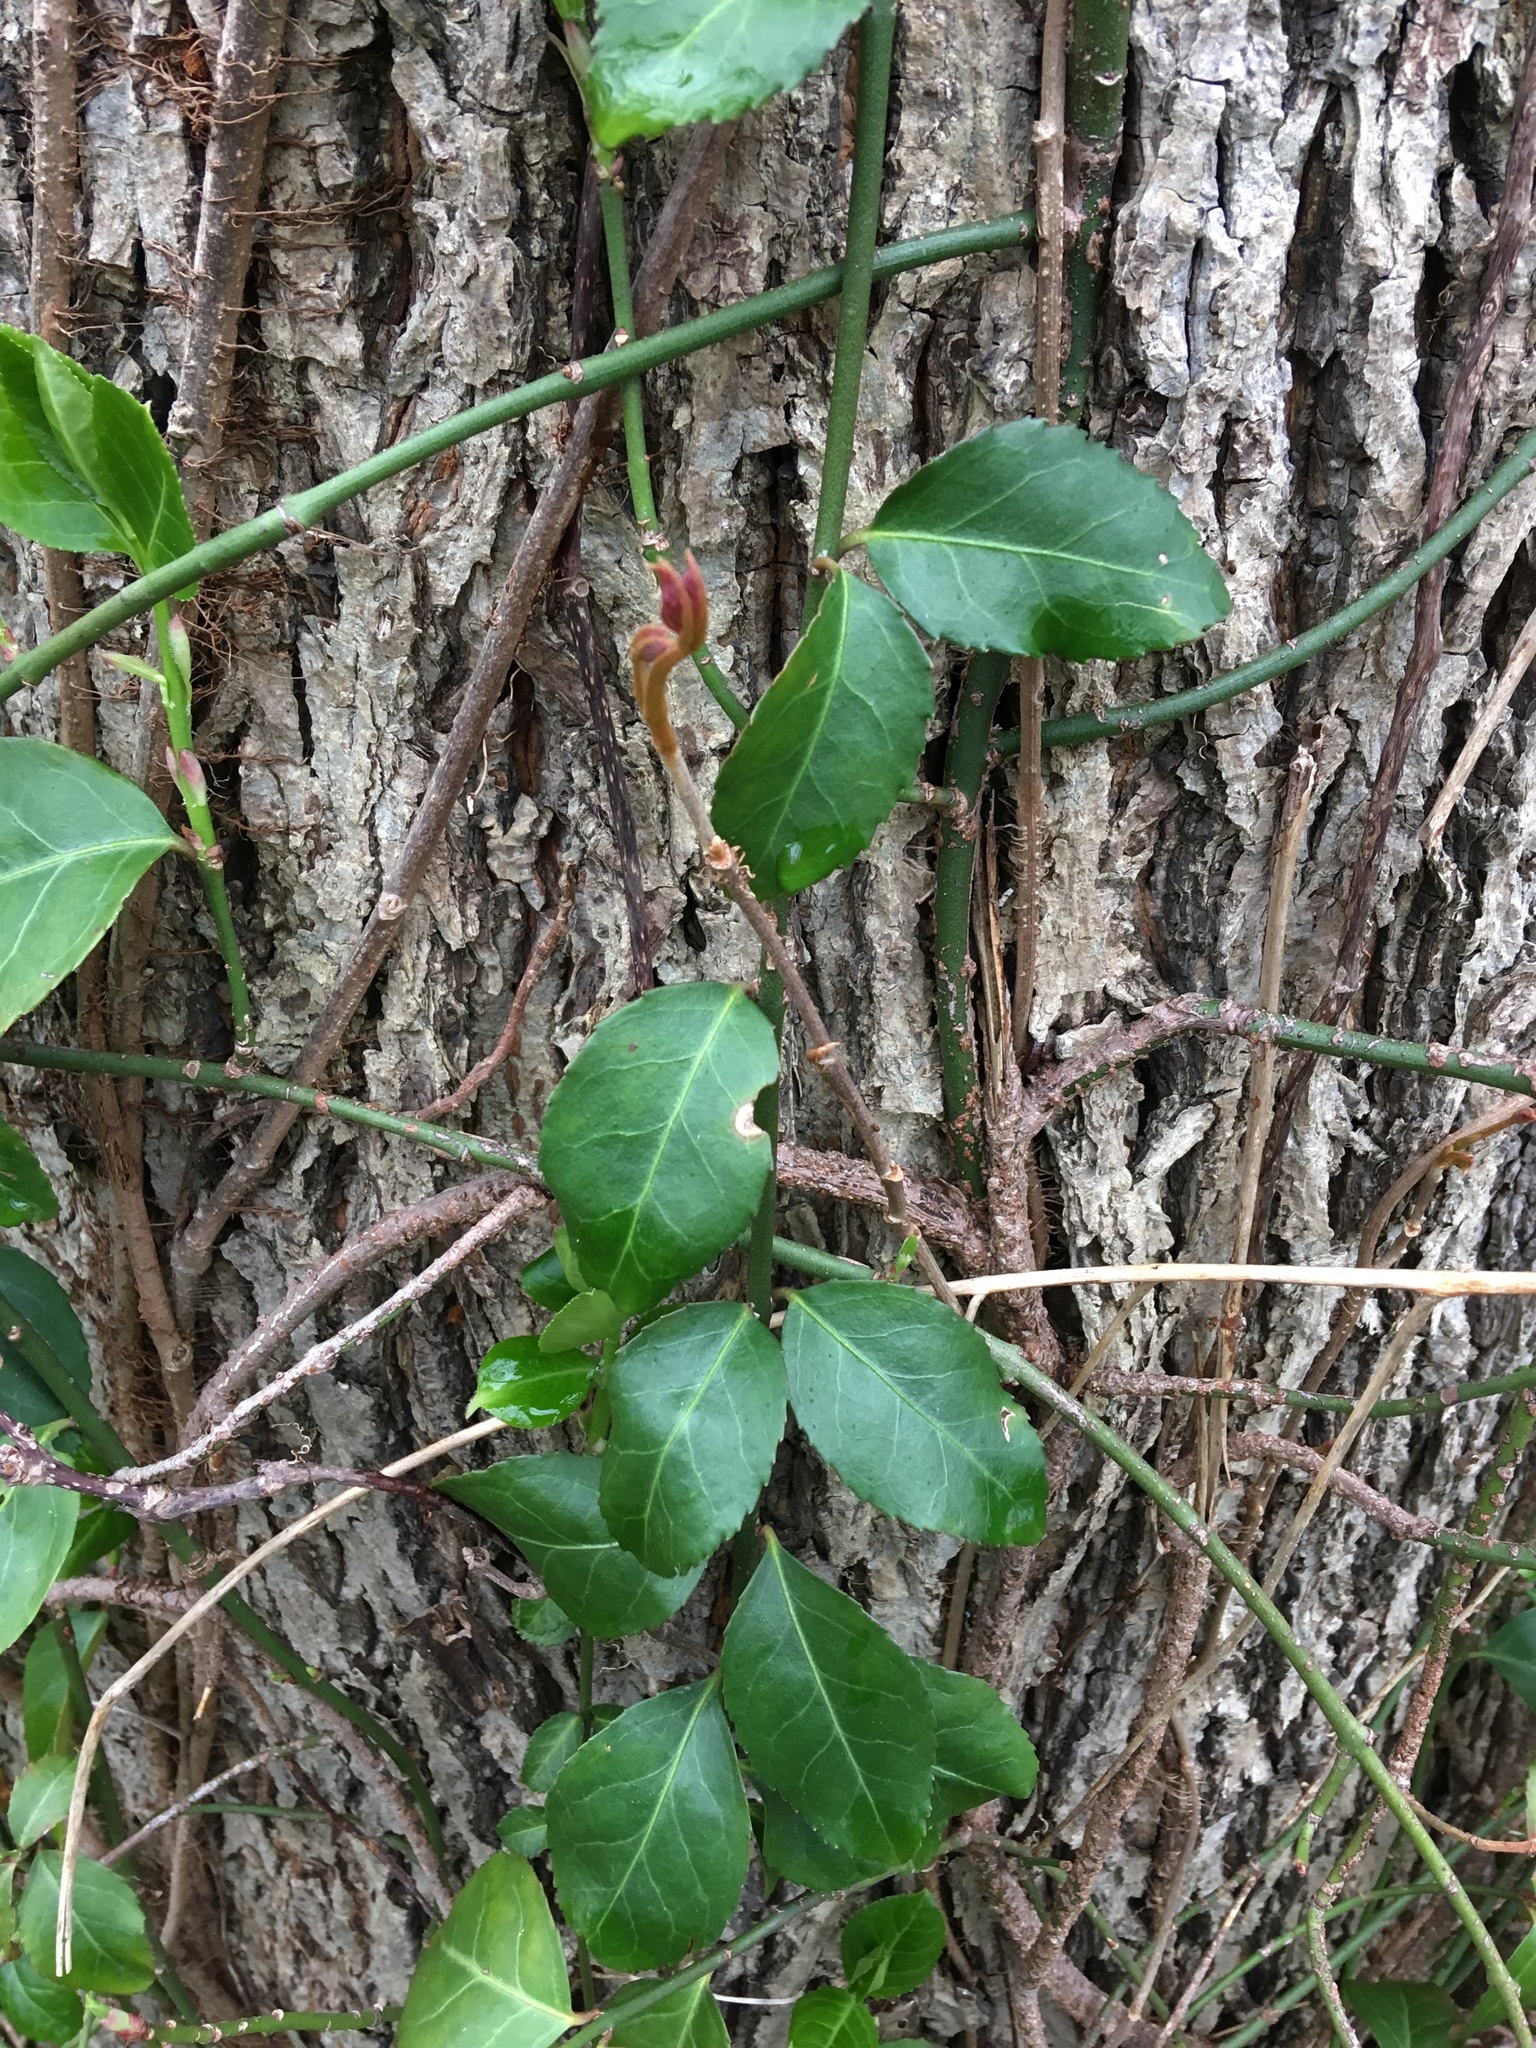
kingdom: Plantae
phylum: Tracheophyta
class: Magnoliopsida
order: Celastrales
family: Celastraceae
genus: Euonymus
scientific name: Euonymus fortunei
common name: Climbing euonymus
